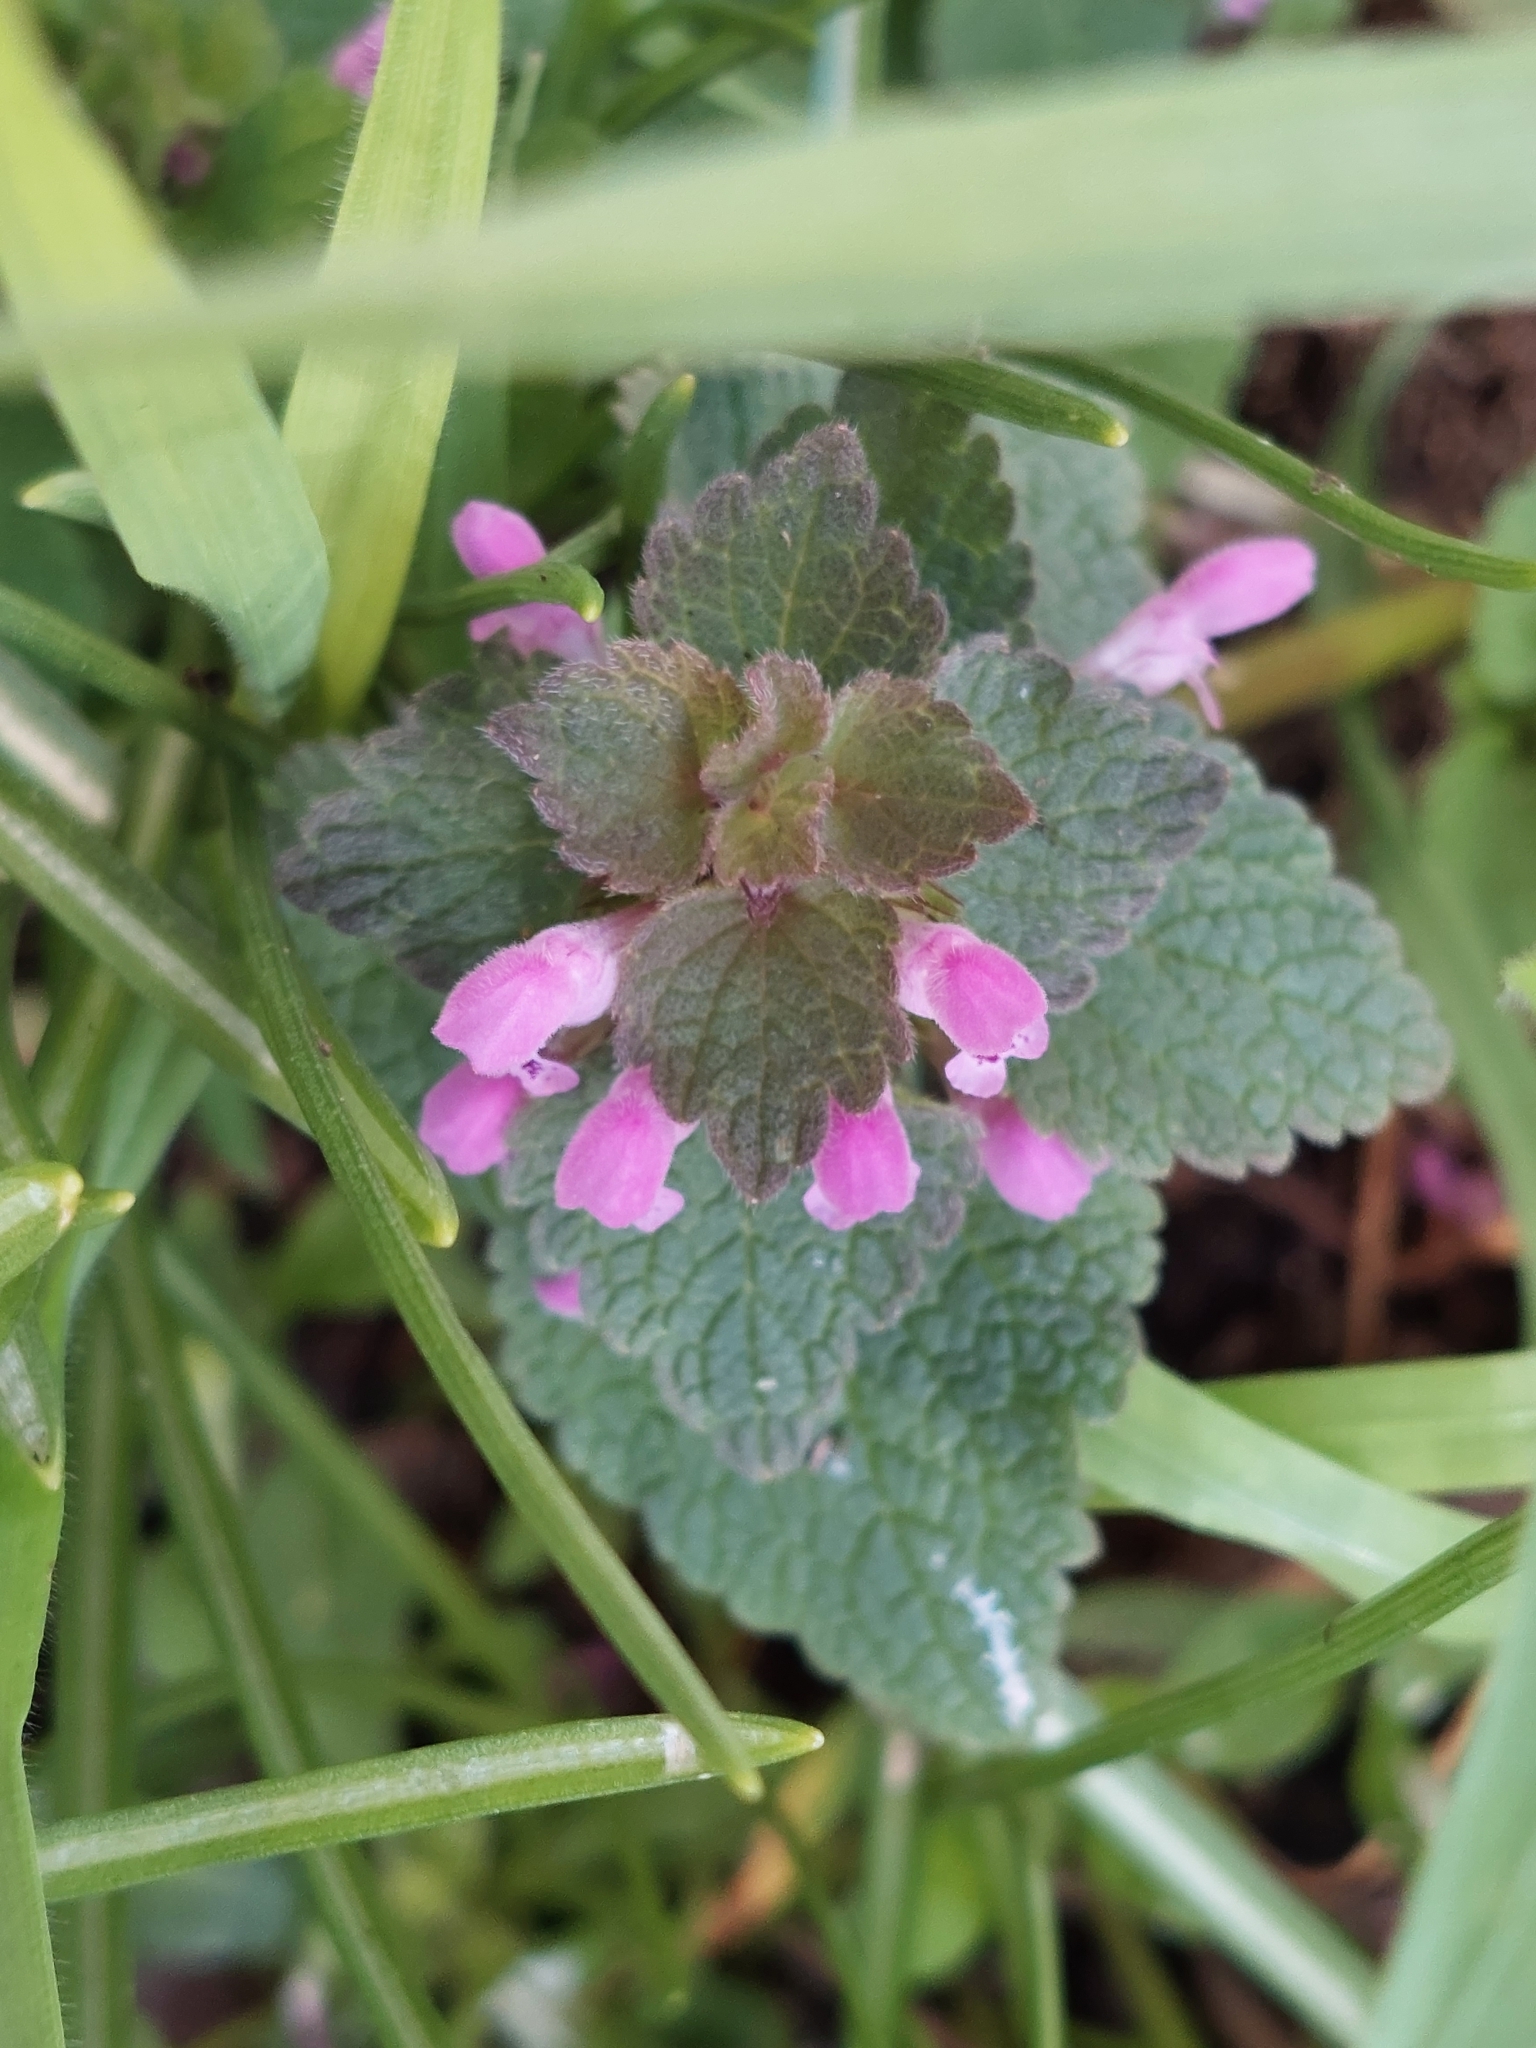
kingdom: Plantae
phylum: Tracheophyta
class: Magnoliopsida
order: Lamiales
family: Lamiaceae
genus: Lamium
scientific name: Lamium purpureum
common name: Red dead-nettle
